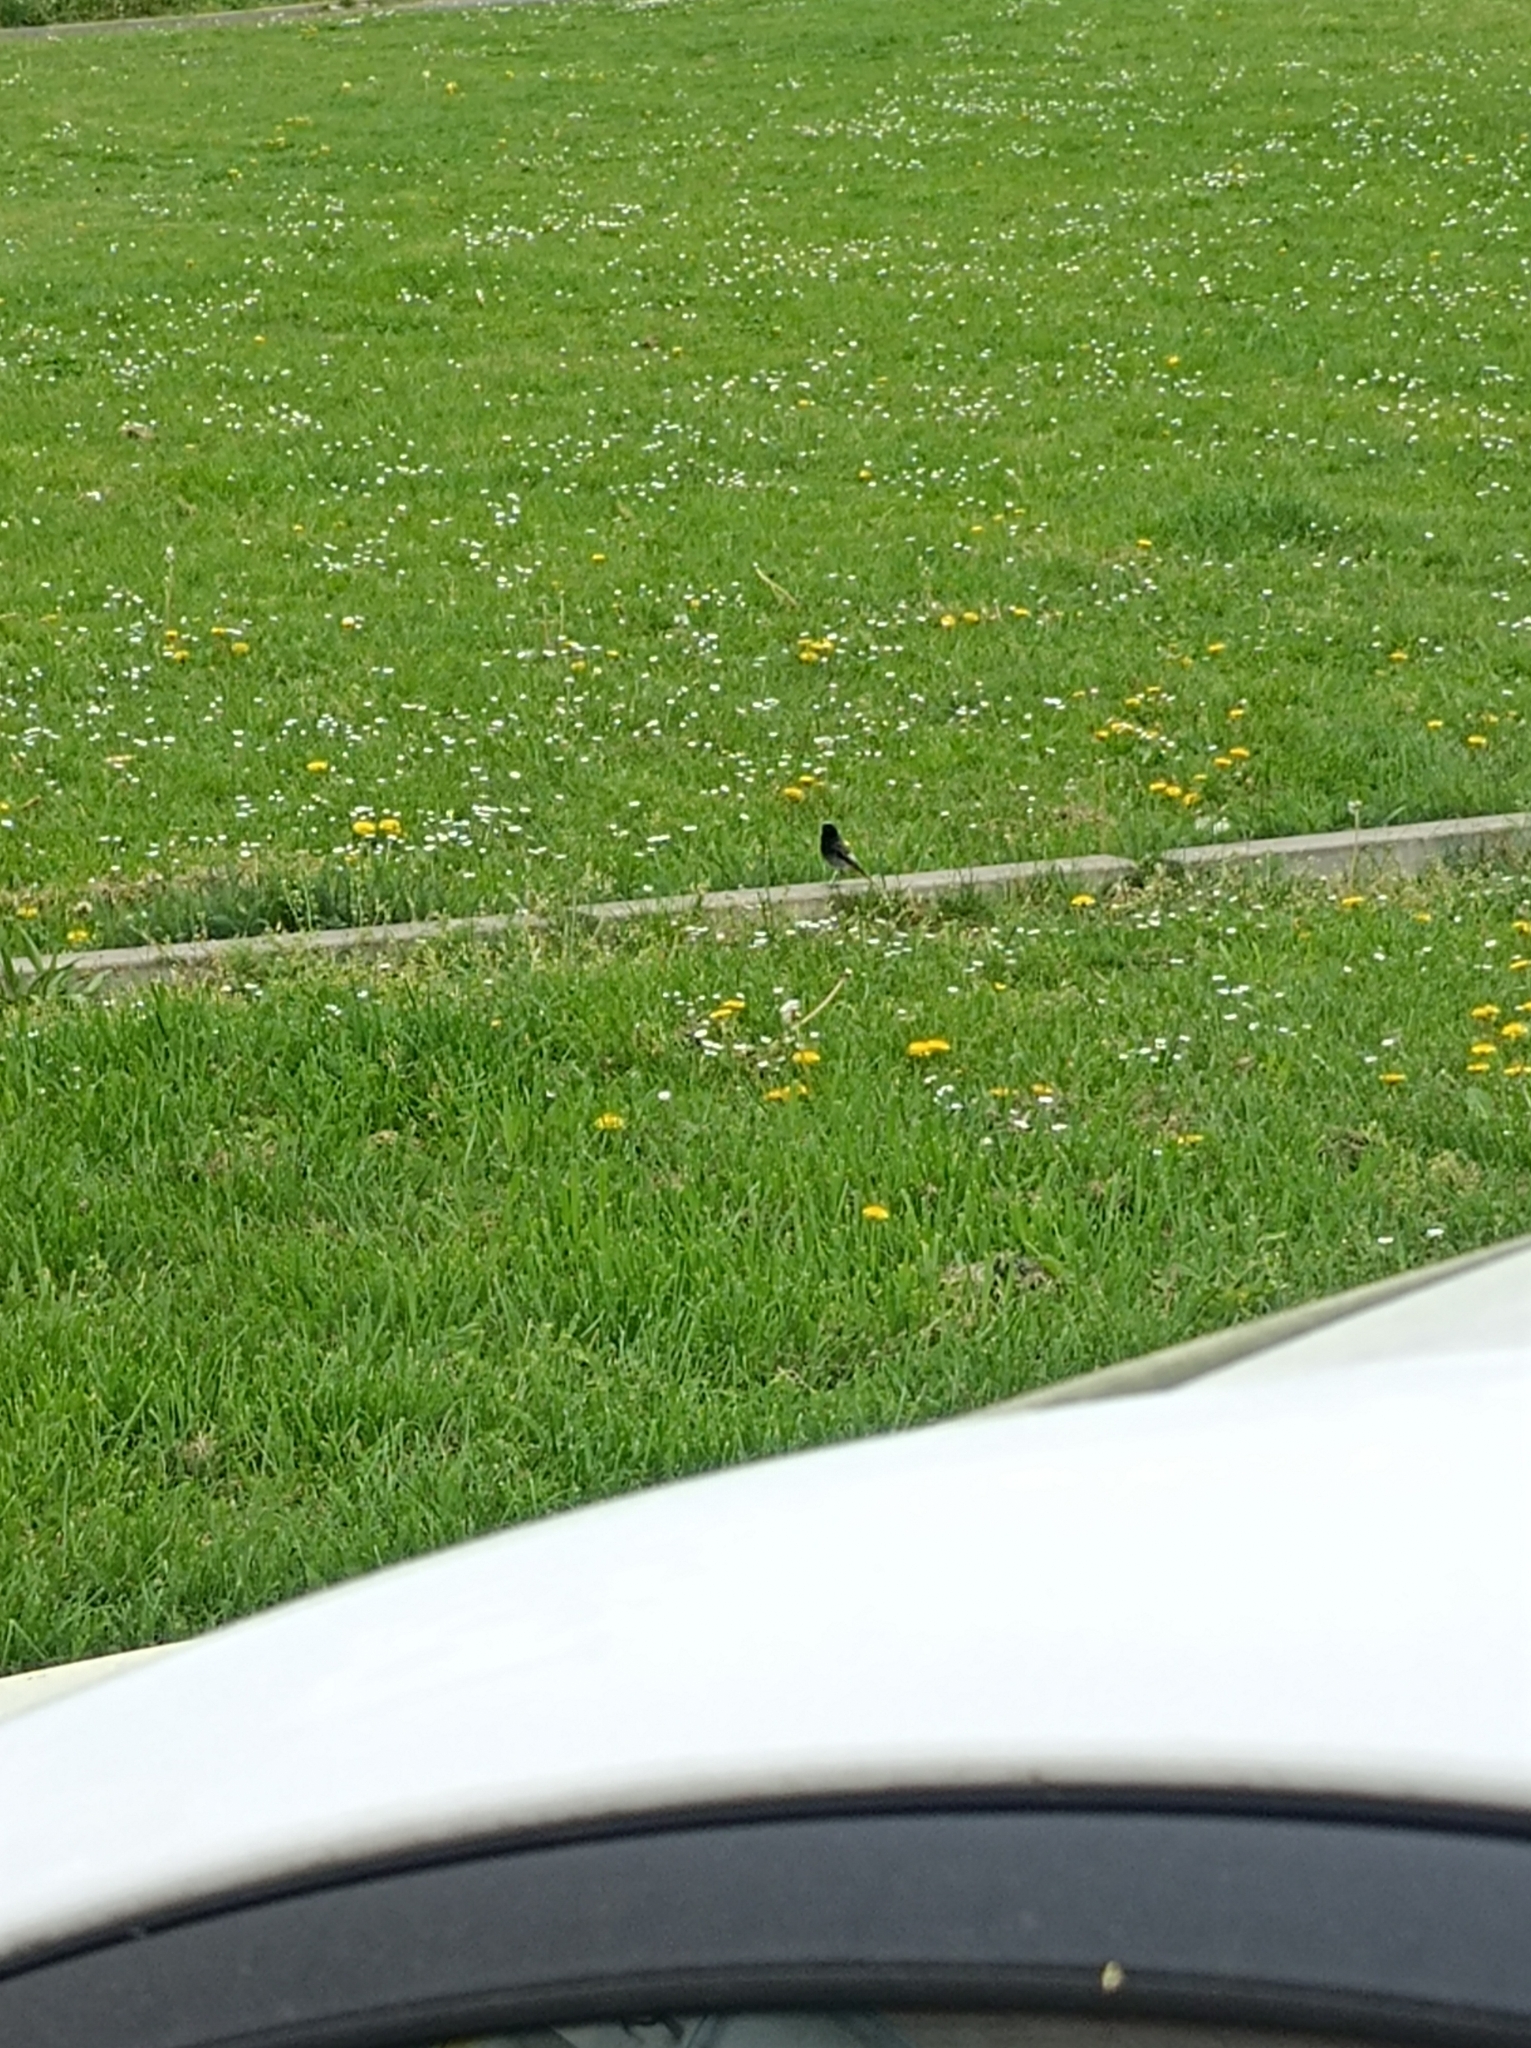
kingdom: Animalia
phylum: Chordata
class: Aves
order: Passeriformes
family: Muscicapidae
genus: Phoenicurus
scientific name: Phoenicurus ochruros
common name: Black redstart
